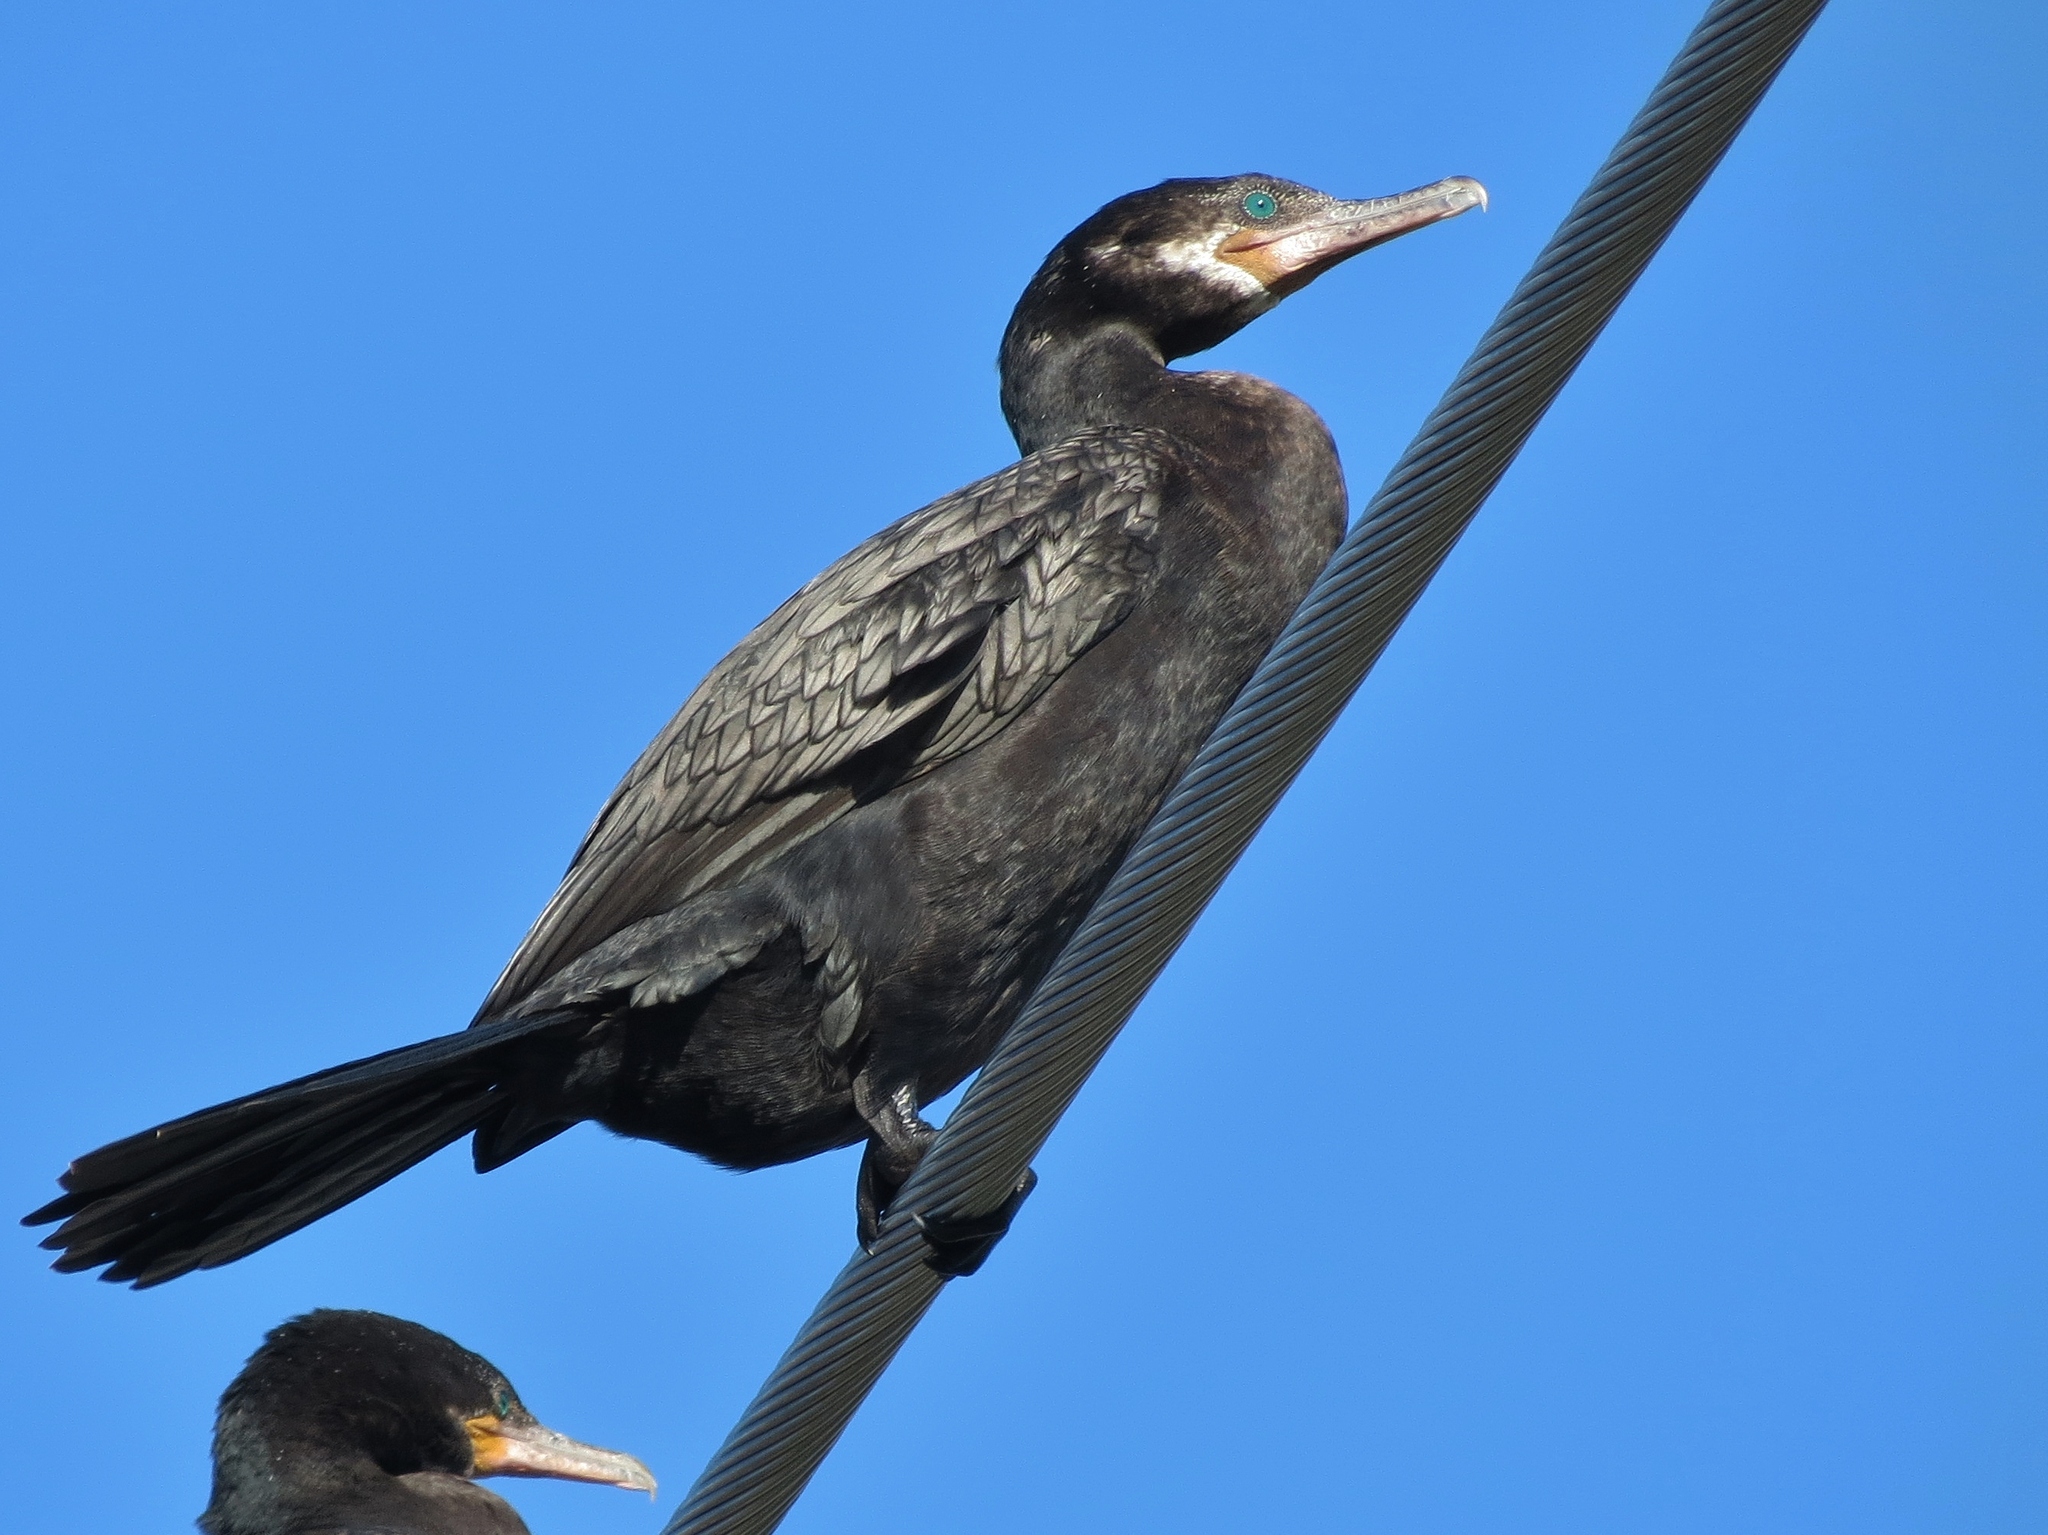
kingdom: Animalia
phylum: Chordata
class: Aves
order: Suliformes
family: Phalacrocoracidae
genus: Phalacrocorax
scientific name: Phalacrocorax brasilianus
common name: Neotropic cormorant
